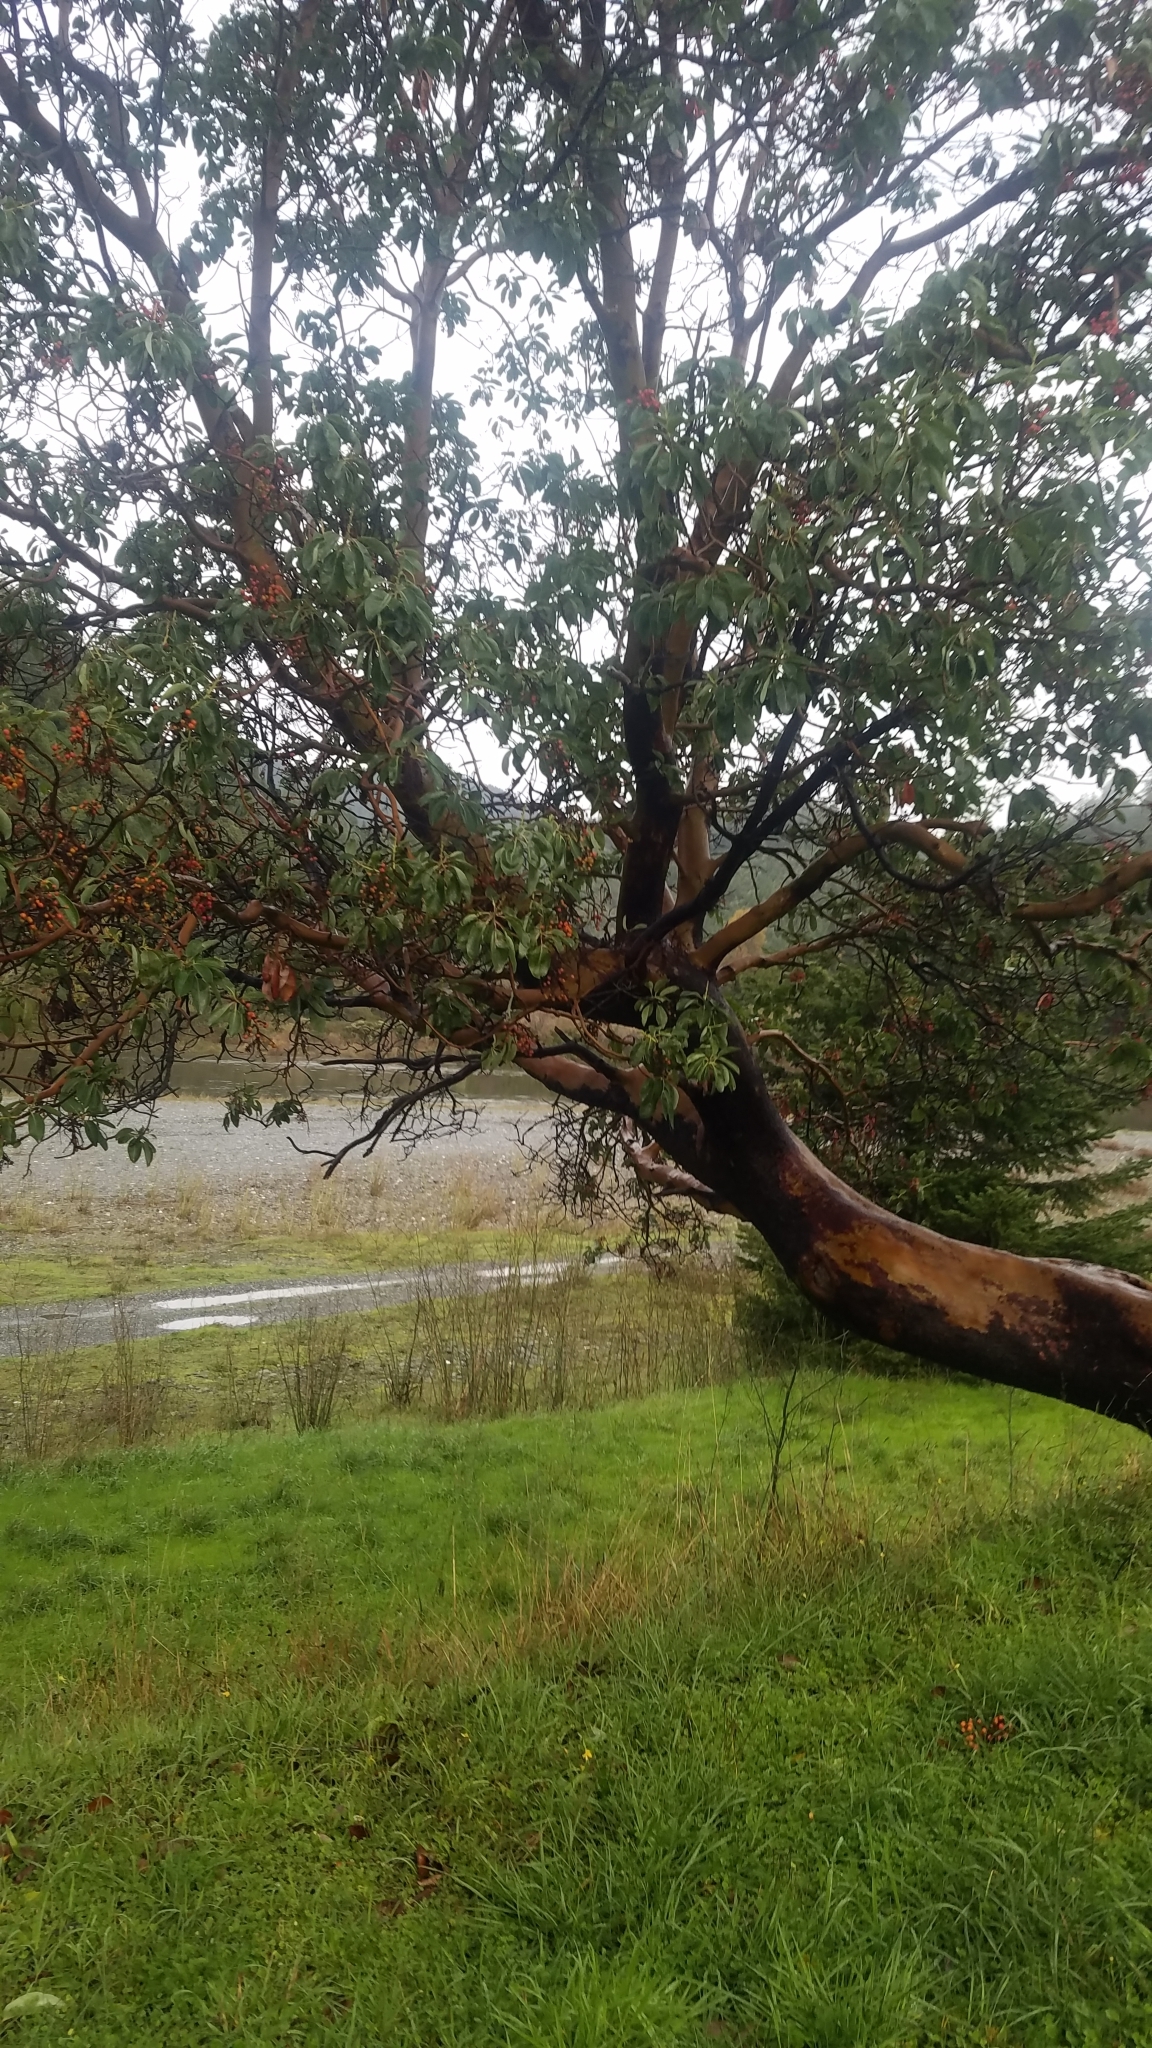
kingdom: Plantae
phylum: Tracheophyta
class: Magnoliopsida
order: Ericales
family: Ericaceae
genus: Arbutus
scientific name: Arbutus menziesii
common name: Pacific madrone
